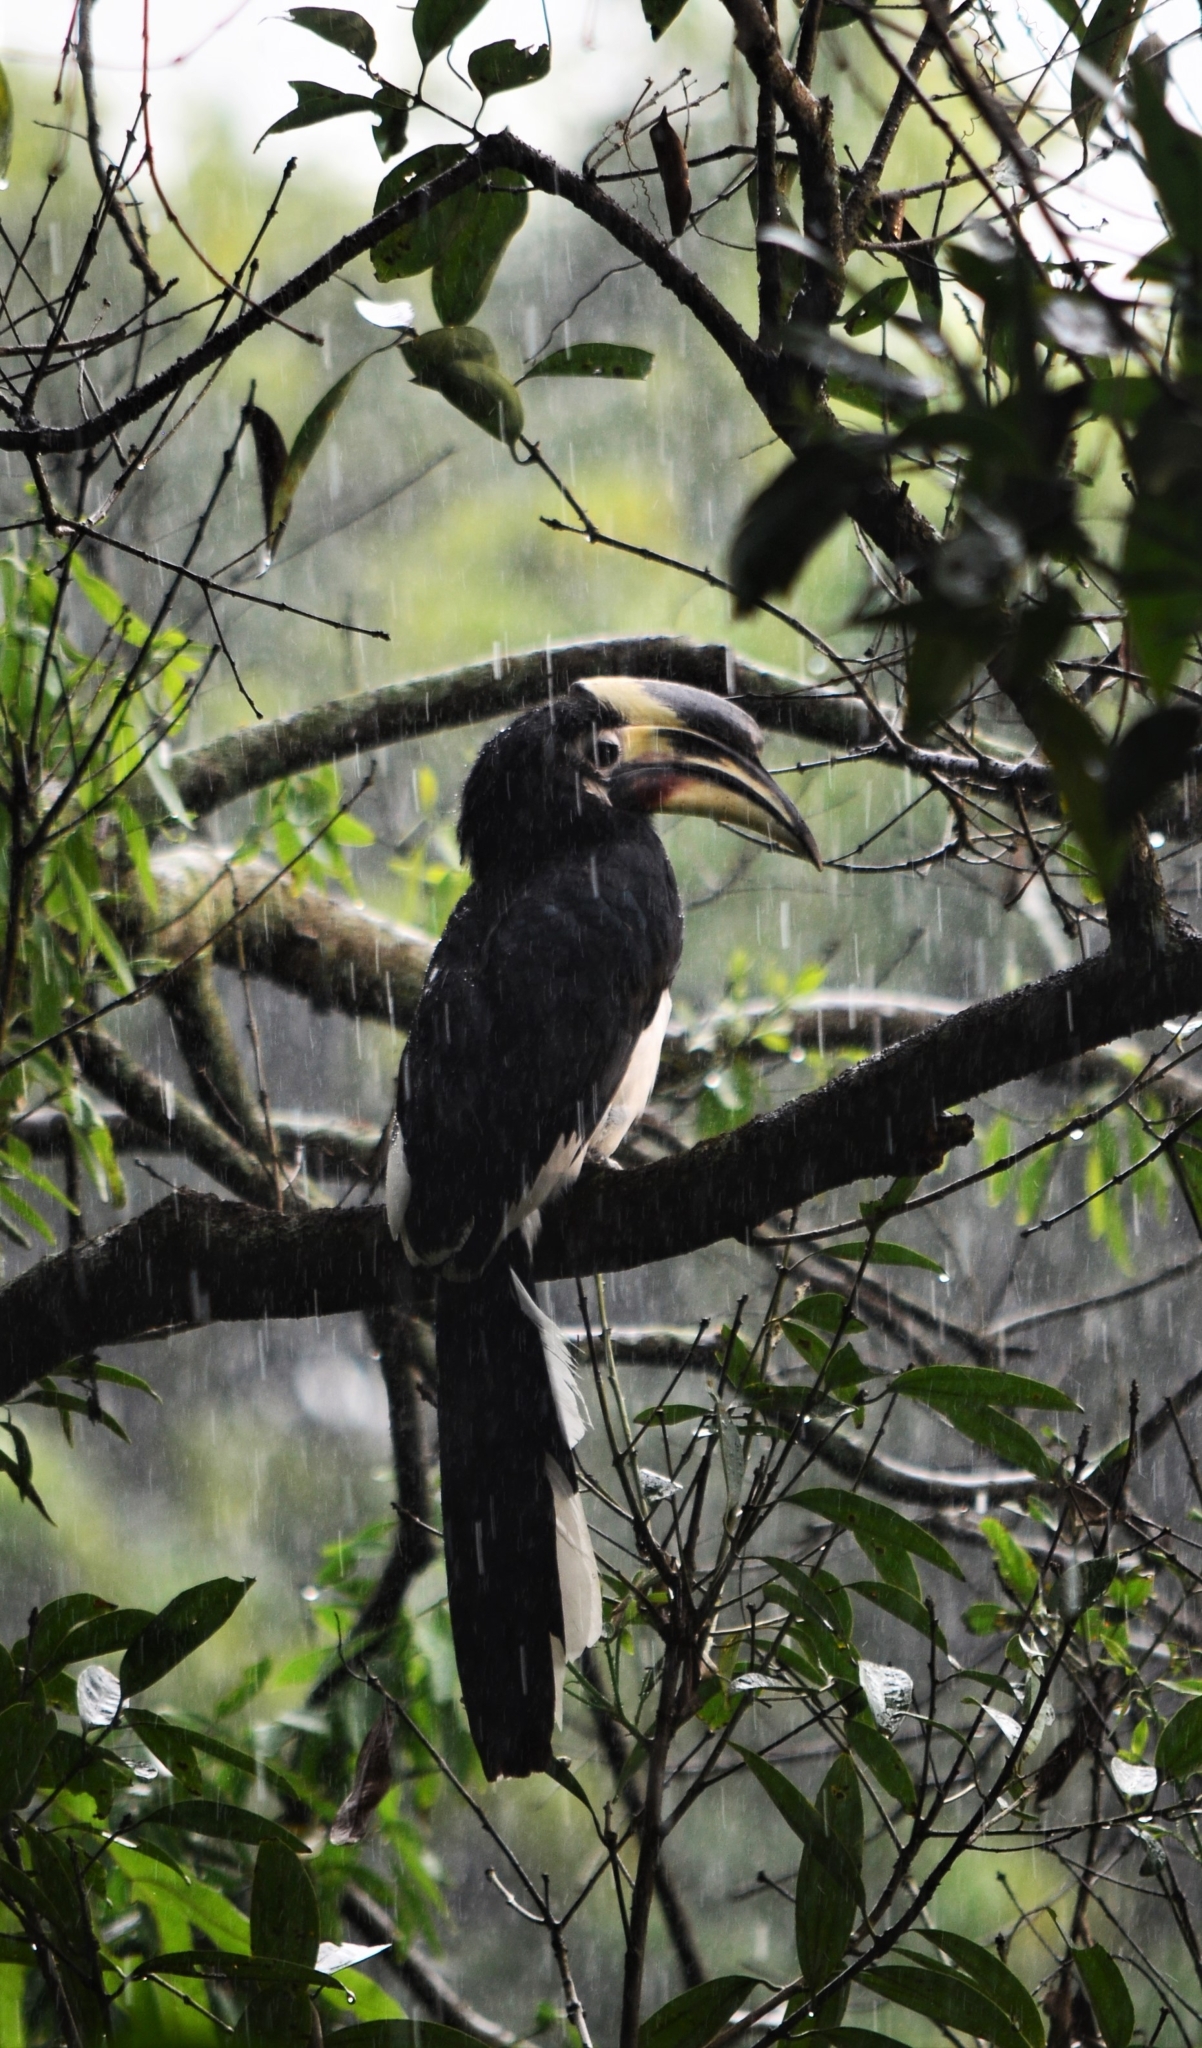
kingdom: Animalia
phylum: Chordata
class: Aves
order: Bucerotiformes
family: Bucerotidae
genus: Anthracoceros
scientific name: Anthracoceros albirostris
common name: Oriental pied-hornbill
